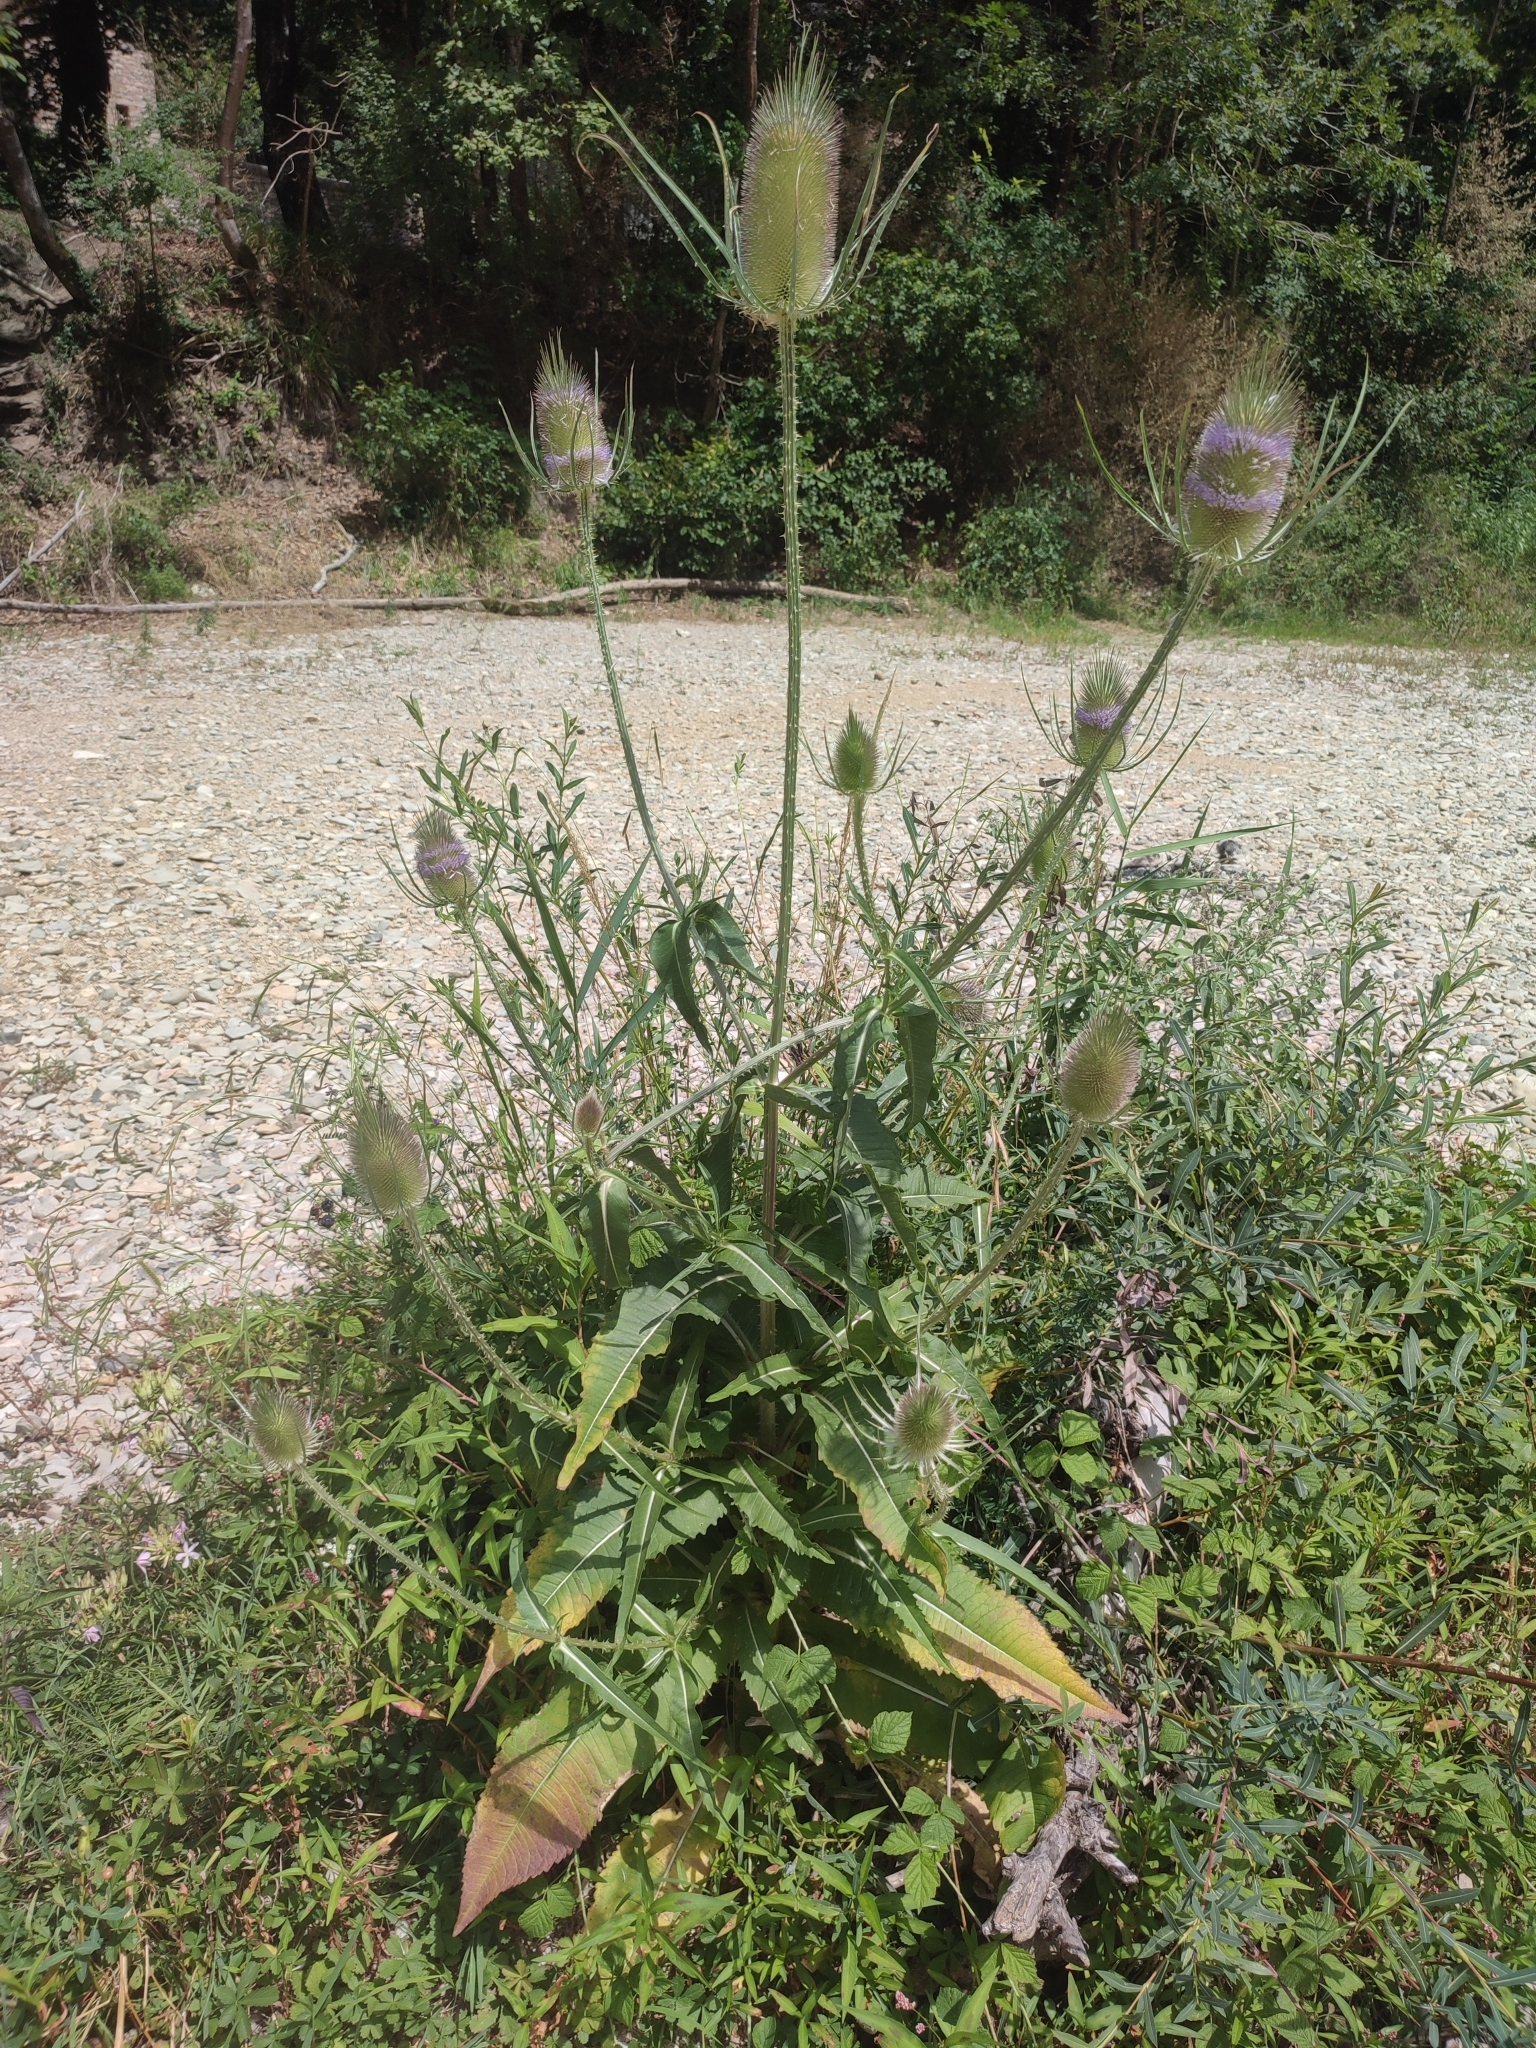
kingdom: Plantae
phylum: Tracheophyta
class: Magnoliopsida
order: Dipsacales
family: Caprifoliaceae
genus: Dipsacus
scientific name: Dipsacus fullonum
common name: Teasel
